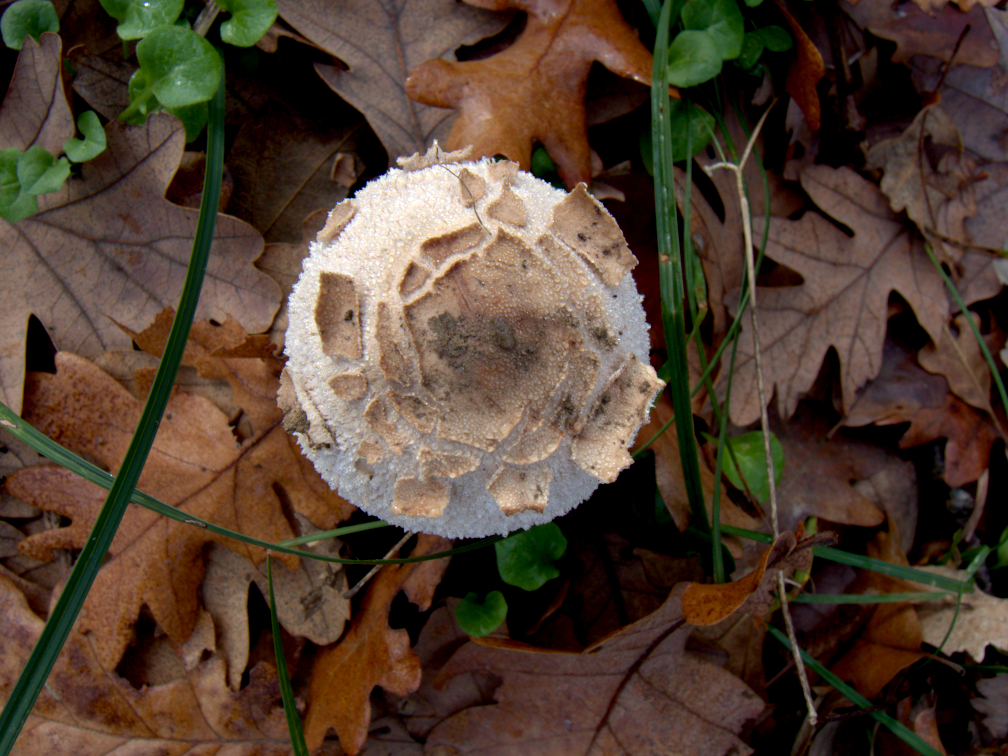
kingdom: Fungi
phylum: Basidiomycota
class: Agaricomycetes
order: Agaricales
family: Agaricaceae
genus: Macrolepiota
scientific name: Macrolepiota procera
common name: Parasol
